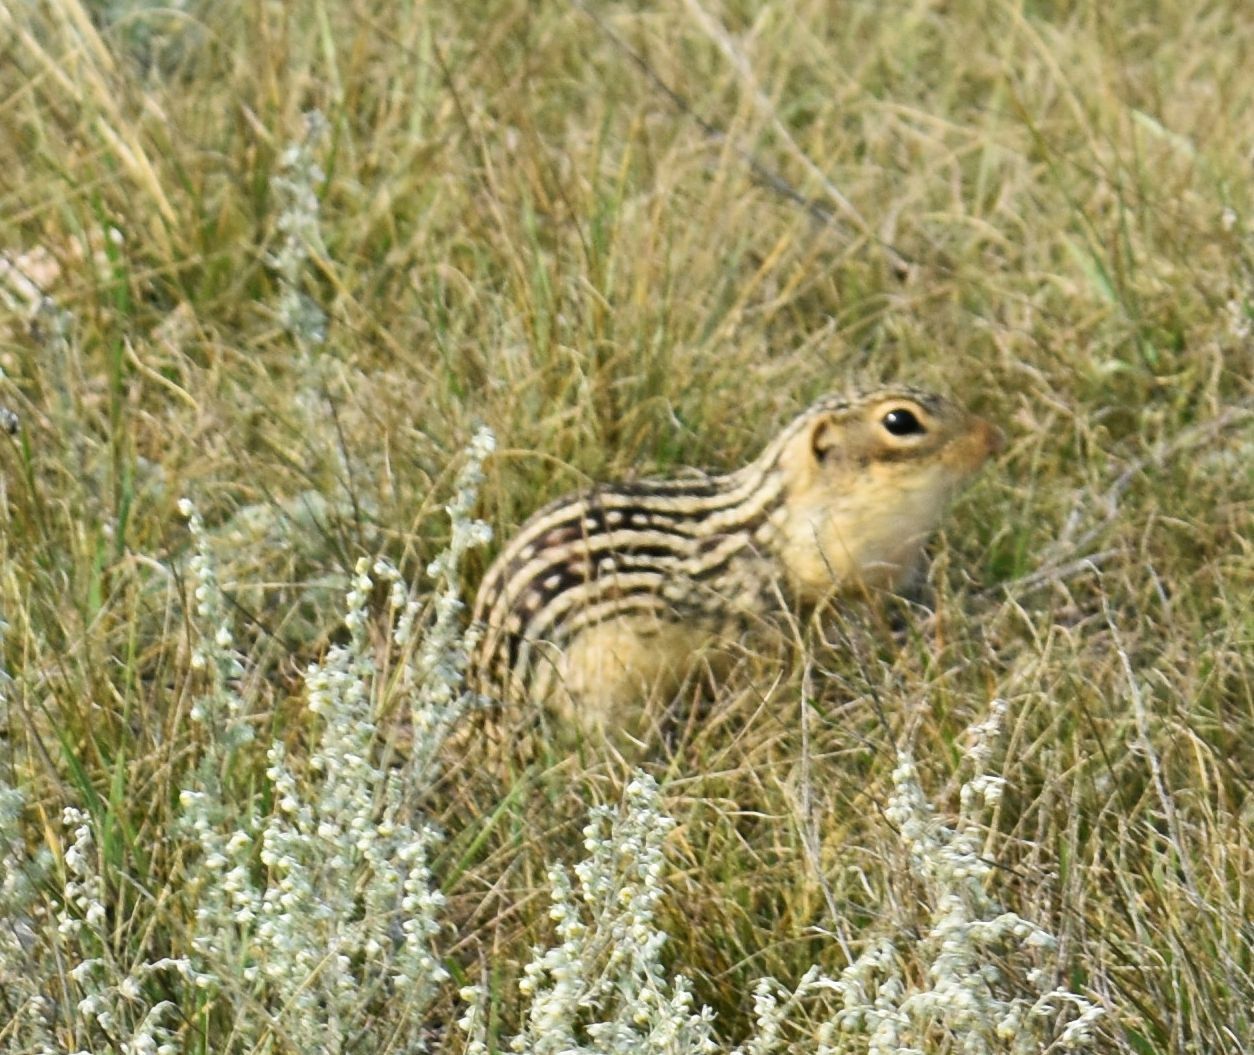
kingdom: Animalia
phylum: Chordata
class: Mammalia
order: Rodentia
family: Sciuridae
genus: Ictidomys
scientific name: Ictidomys tridecemlineatus
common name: Thirteen-lined ground squirrel
